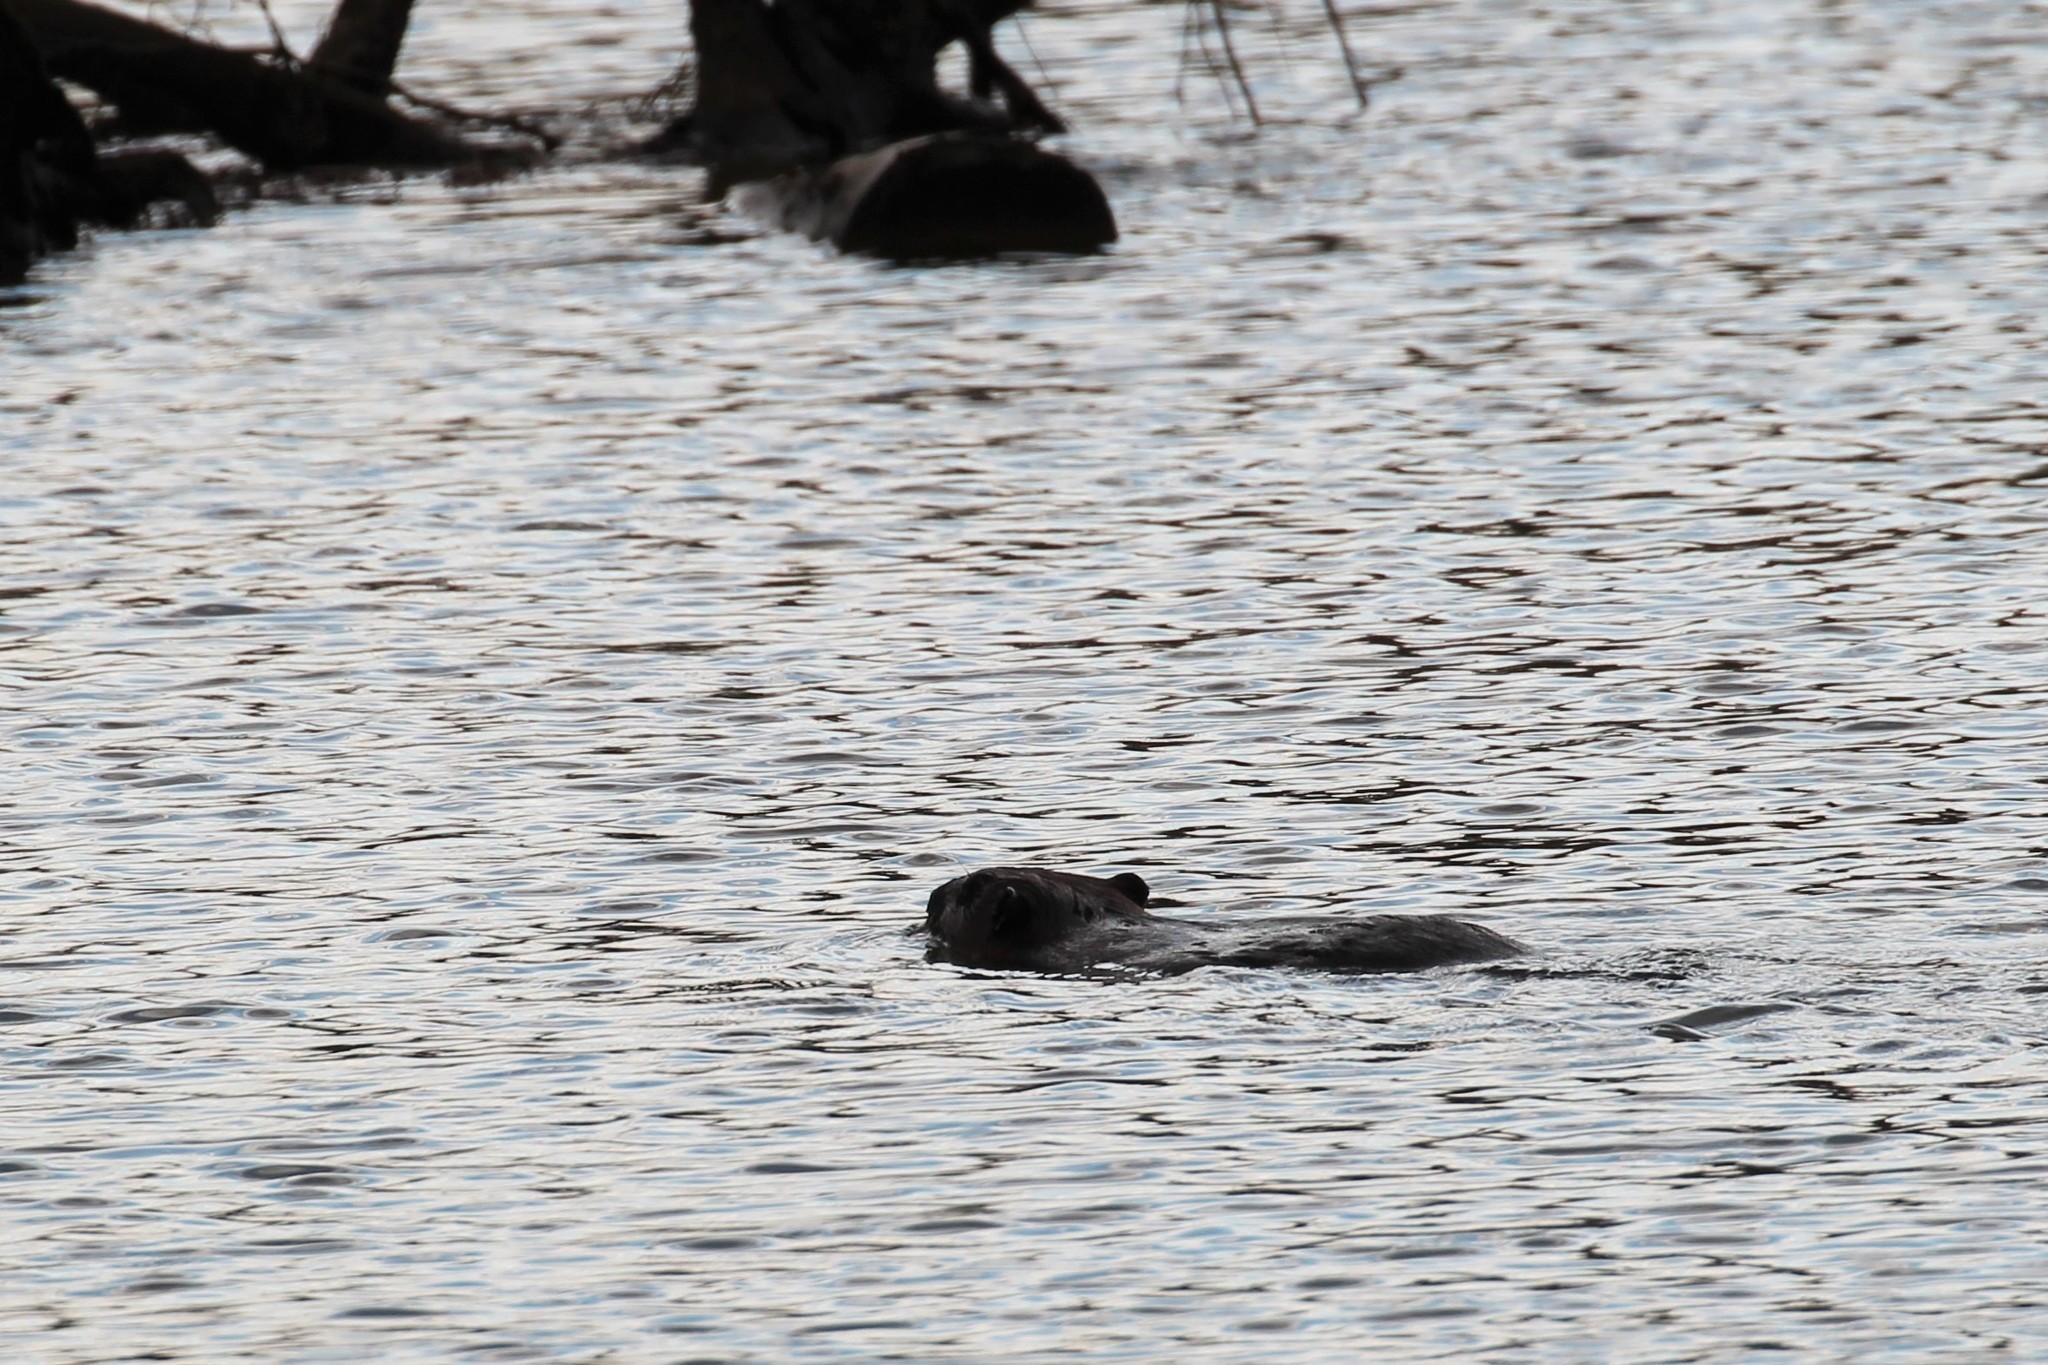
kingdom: Animalia
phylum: Chordata
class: Mammalia
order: Rodentia
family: Castoridae
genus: Castor
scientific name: Castor canadensis
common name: American beaver
